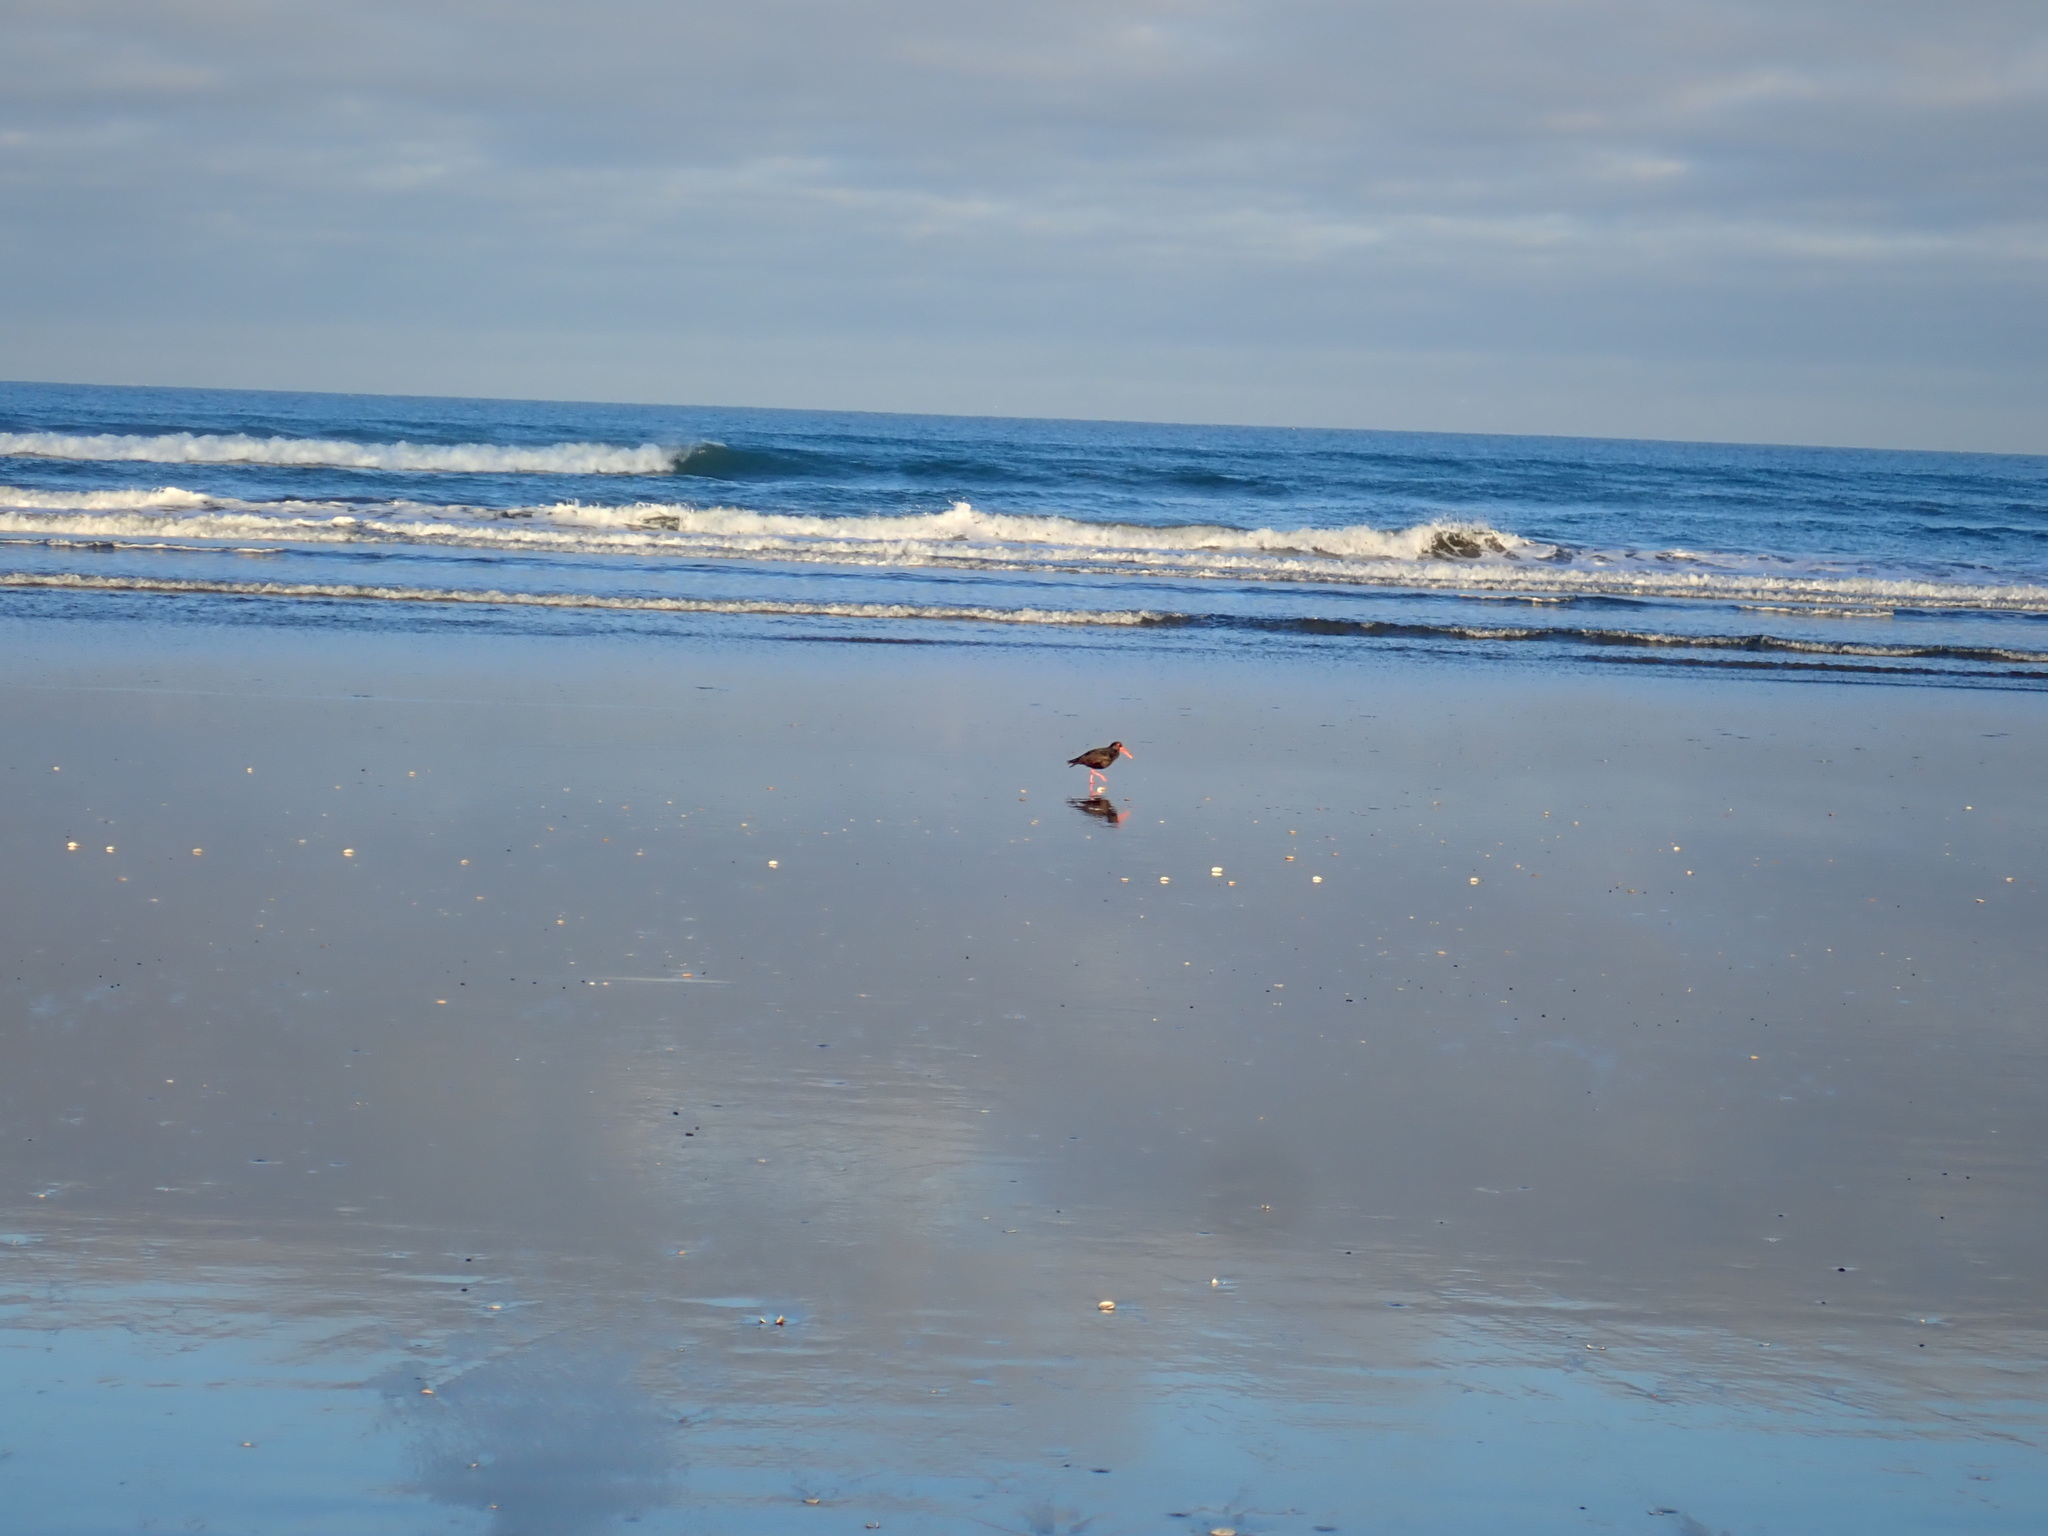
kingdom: Animalia
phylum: Chordata
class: Aves
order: Charadriiformes
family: Haematopodidae
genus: Haematopus
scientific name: Haematopus unicolor
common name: Variable oystercatcher
